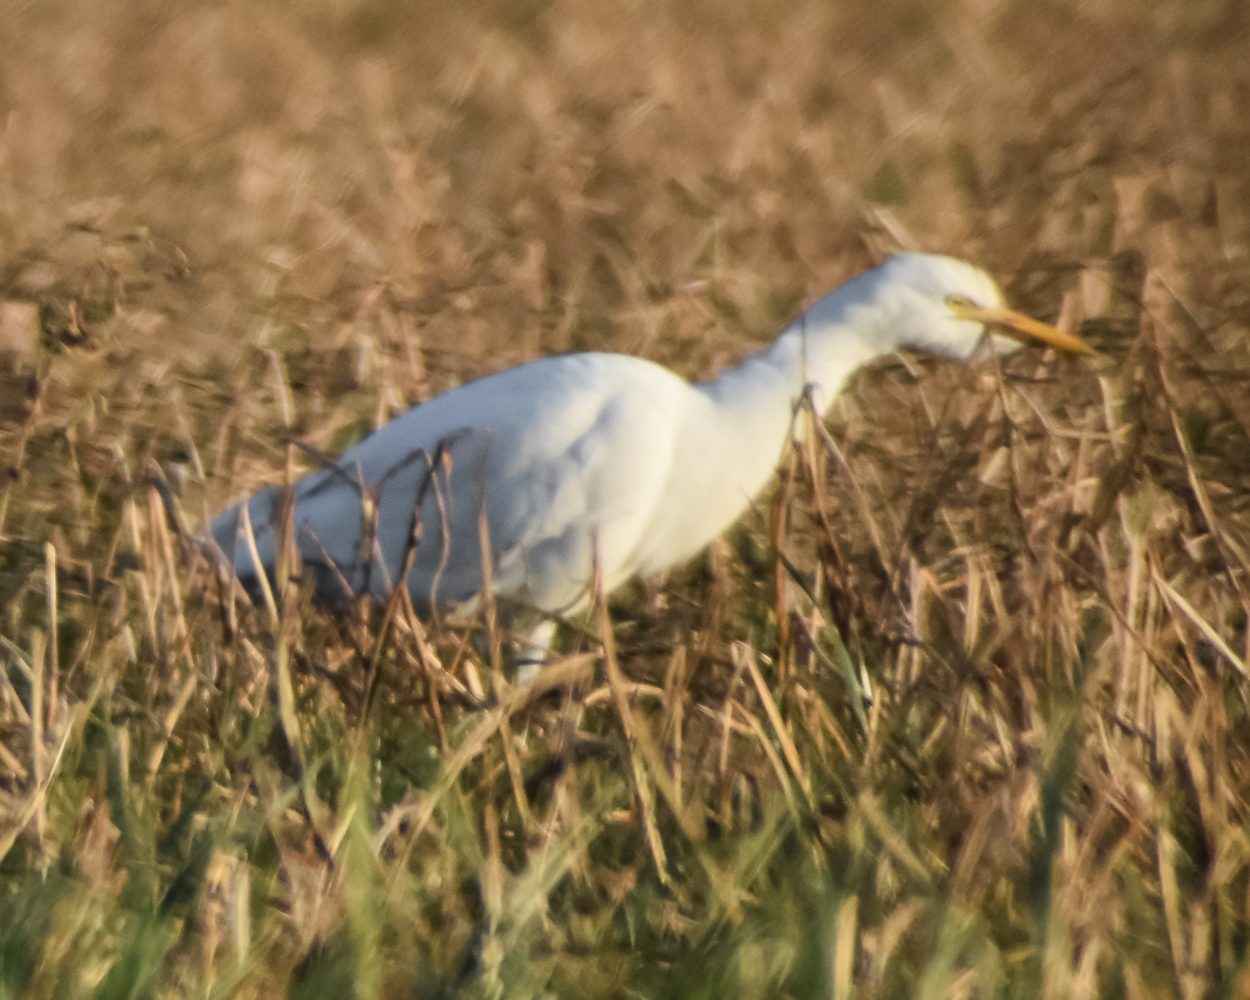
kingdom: Animalia
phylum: Chordata
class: Aves
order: Pelecaniformes
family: Ardeidae
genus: Bubulcus
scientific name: Bubulcus ibis
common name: Cattle egret
